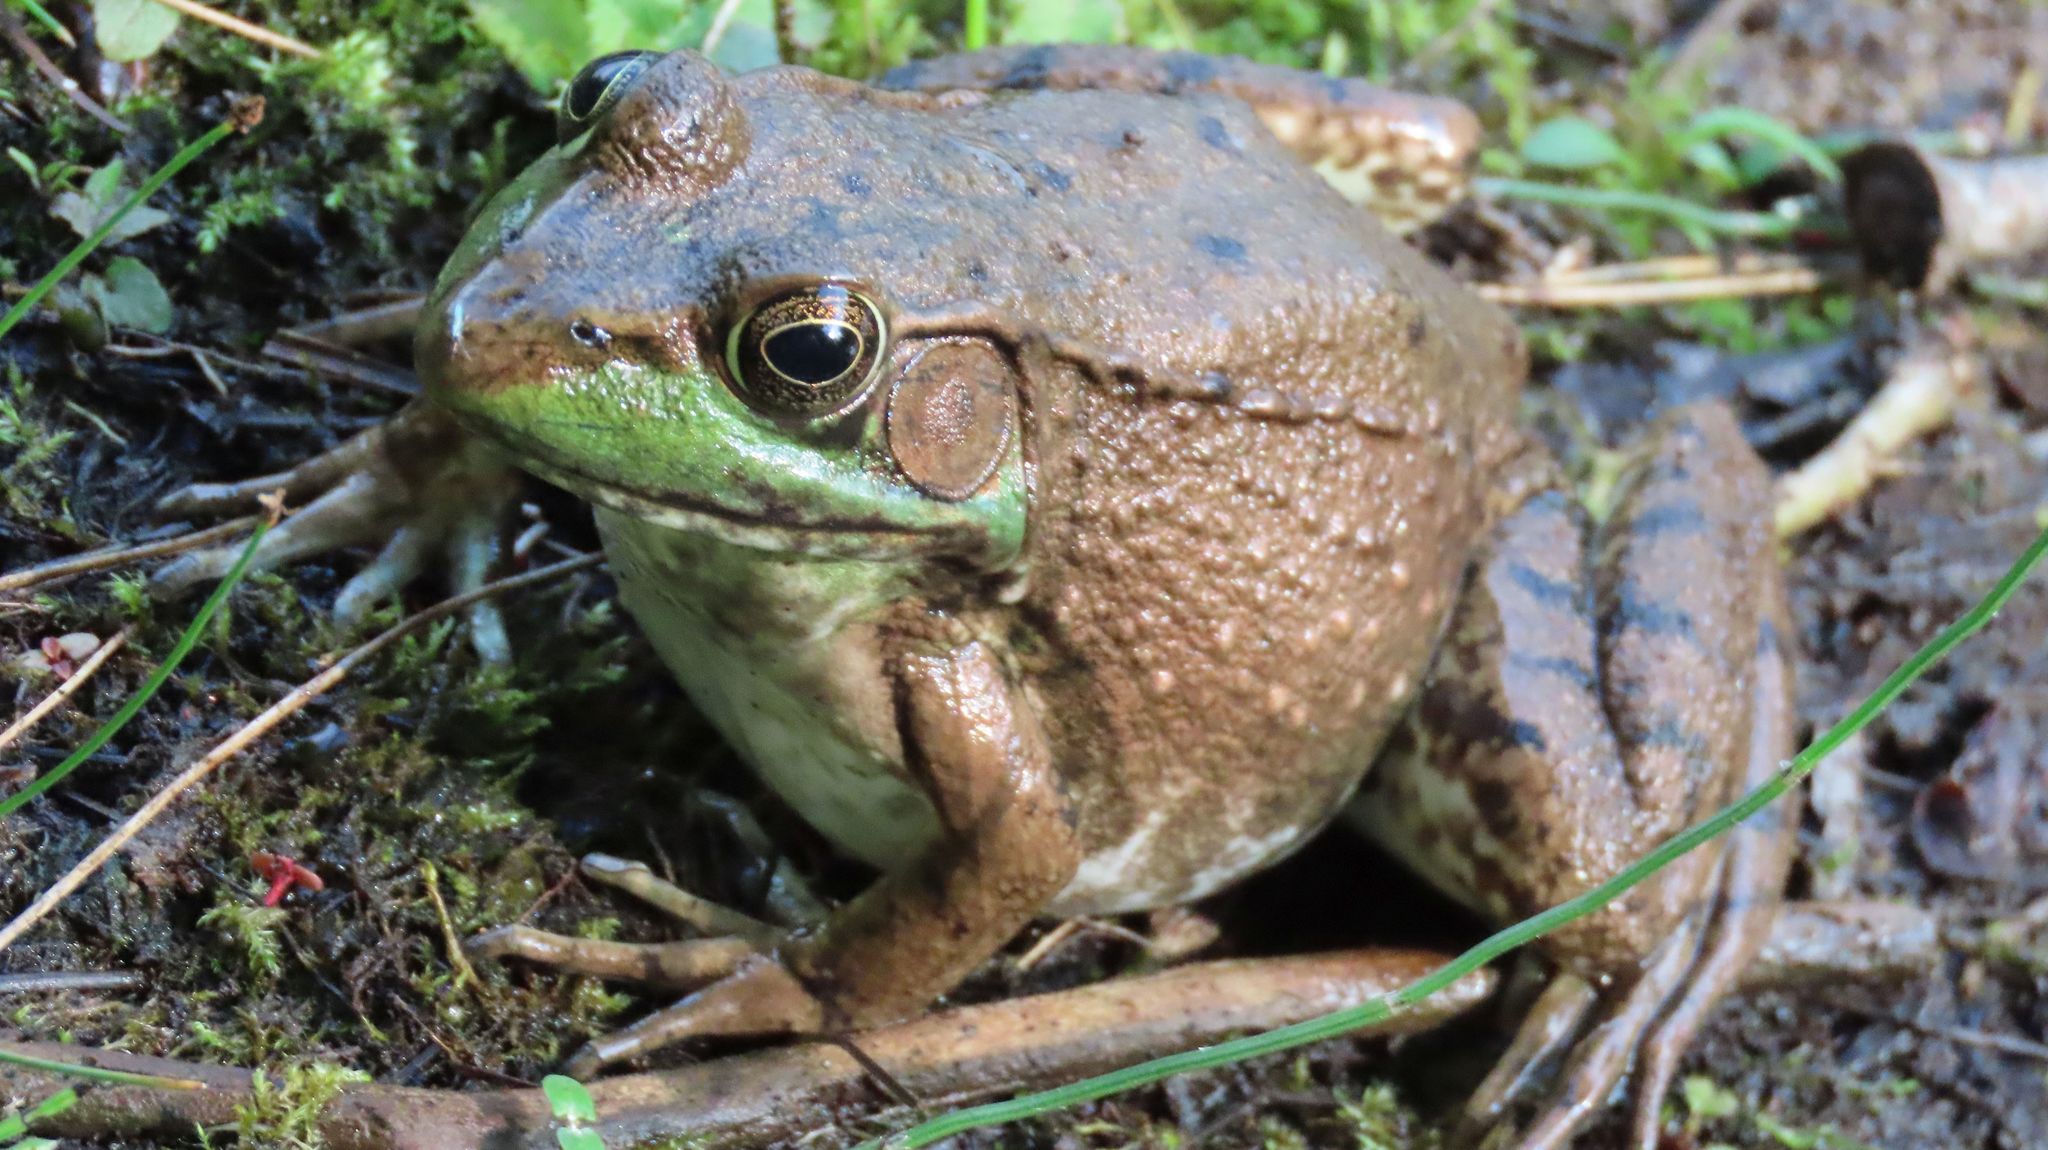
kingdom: Animalia
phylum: Chordata
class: Amphibia
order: Anura
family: Ranidae
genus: Lithobates
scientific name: Lithobates clamitans
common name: Green frog
